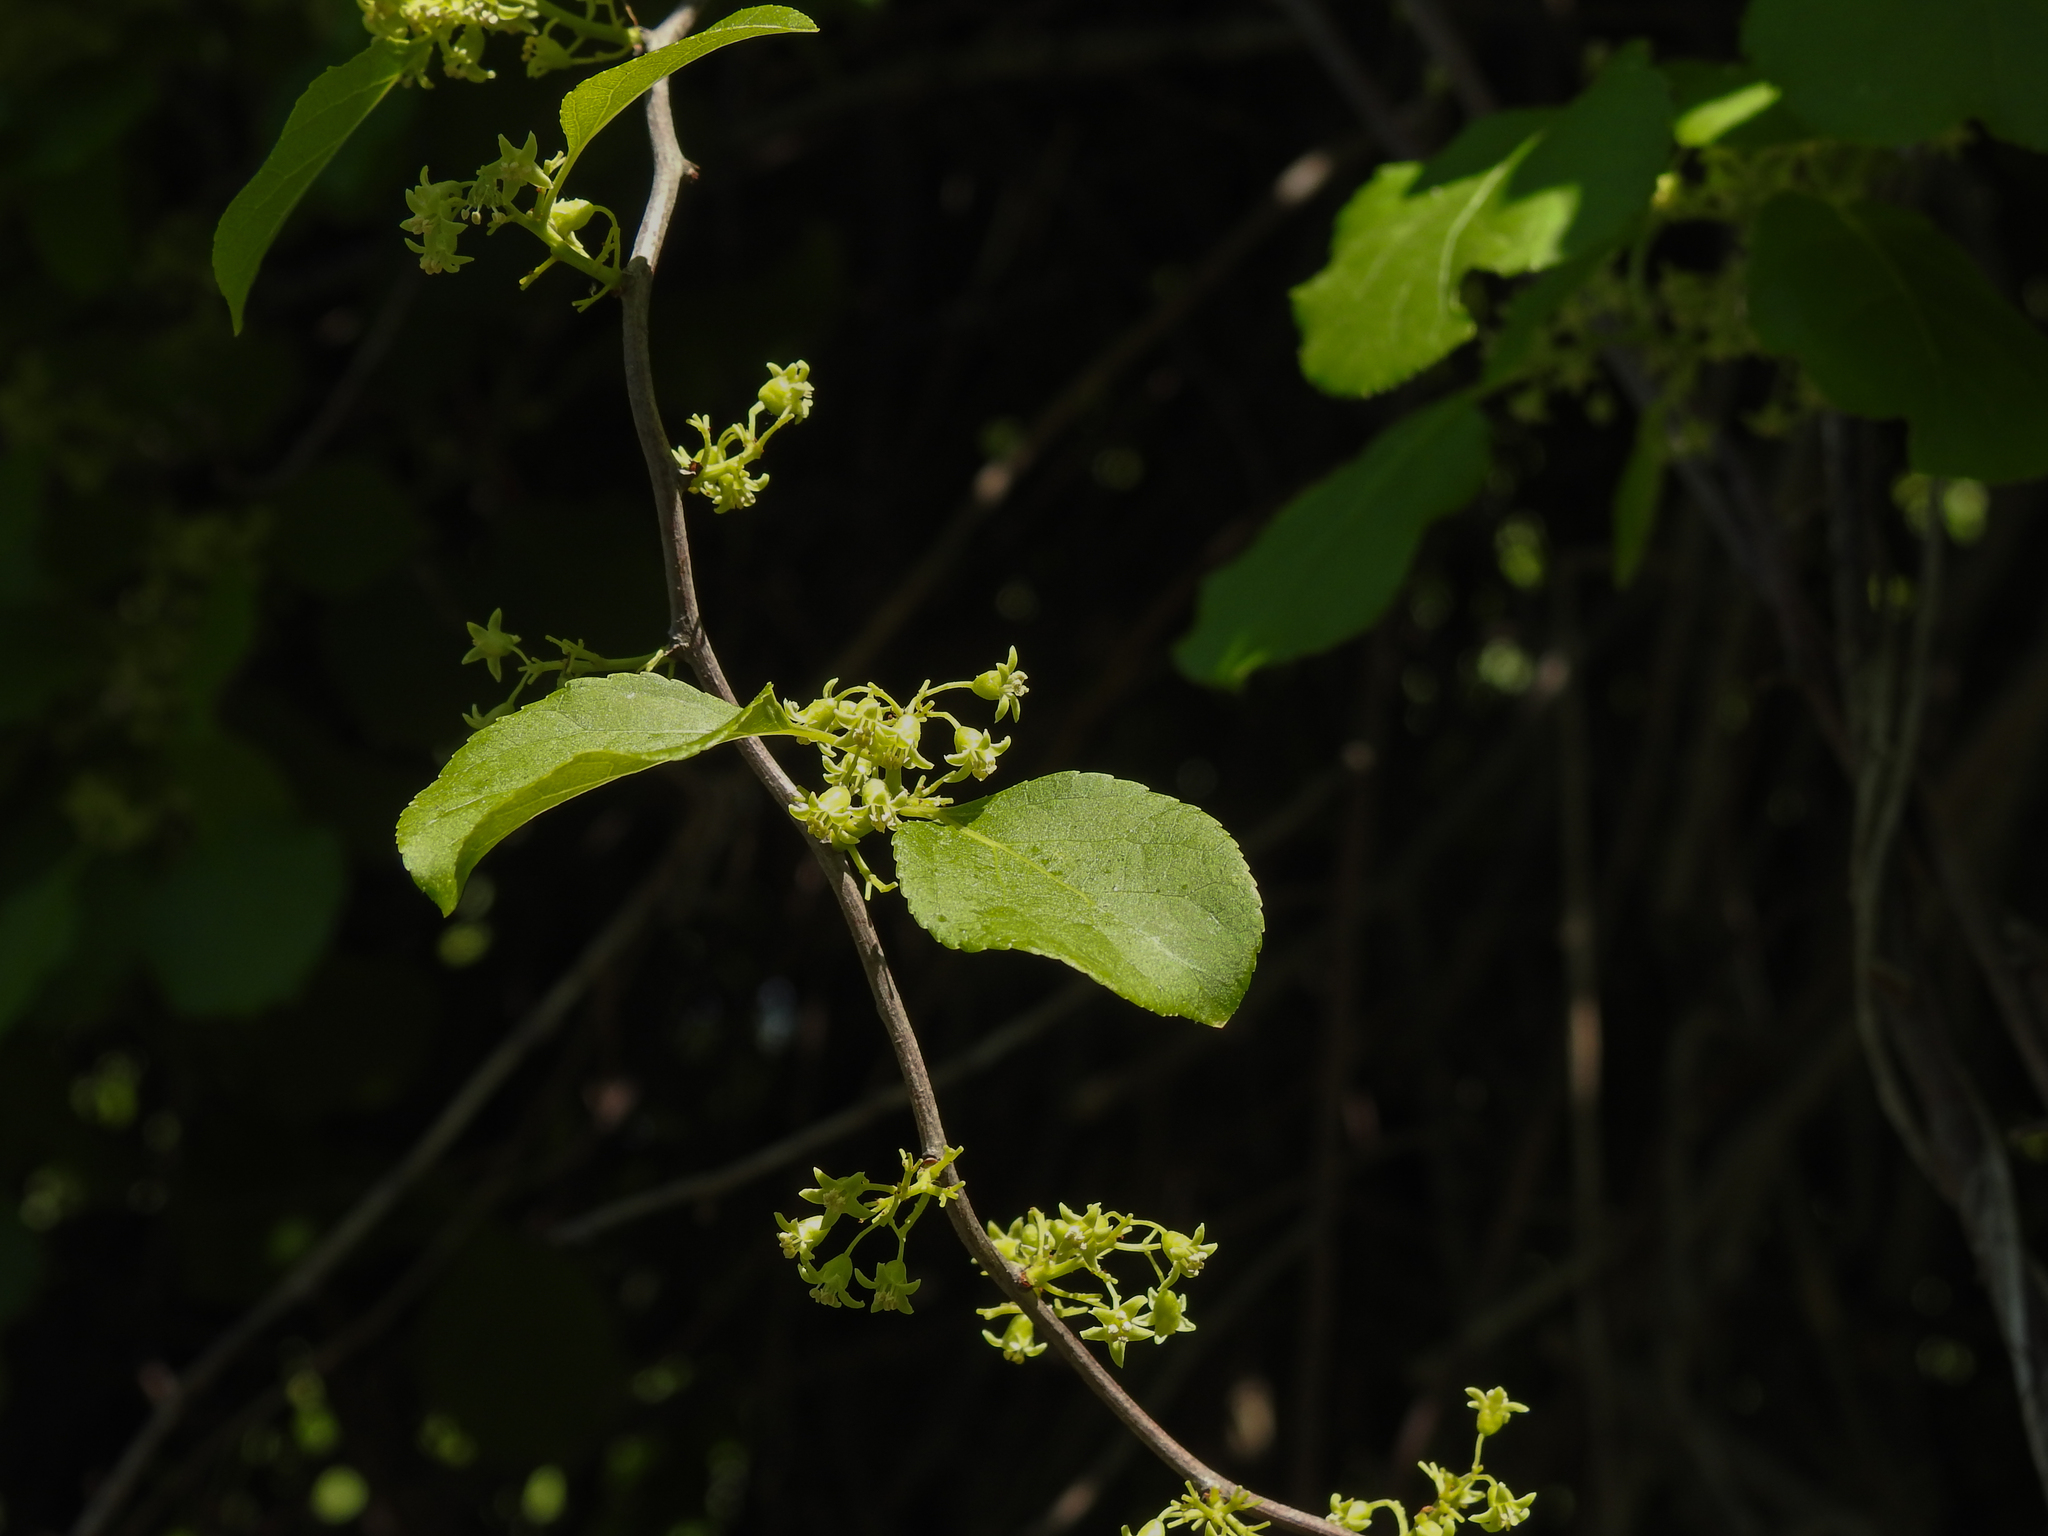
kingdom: Plantae
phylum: Tracheophyta
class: Magnoliopsida
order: Celastrales
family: Celastraceae
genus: Celastrus
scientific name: Celastrus orbiculatus
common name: Oriental bittersweet
